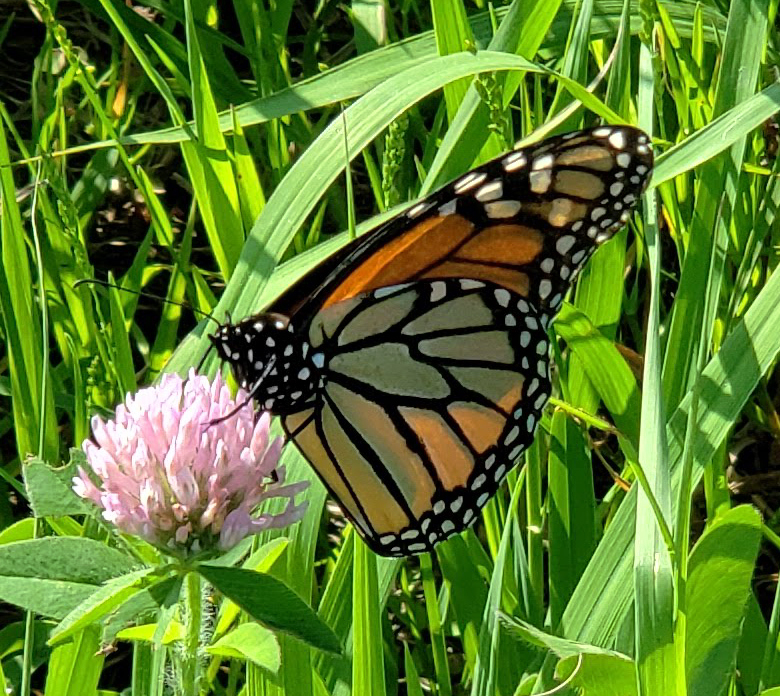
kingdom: Animalia
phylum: Arthropoda
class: Insecta
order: Lepidoptera
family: Nymphalidae
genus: Danaus
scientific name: Danaus plexippus
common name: Monarch
